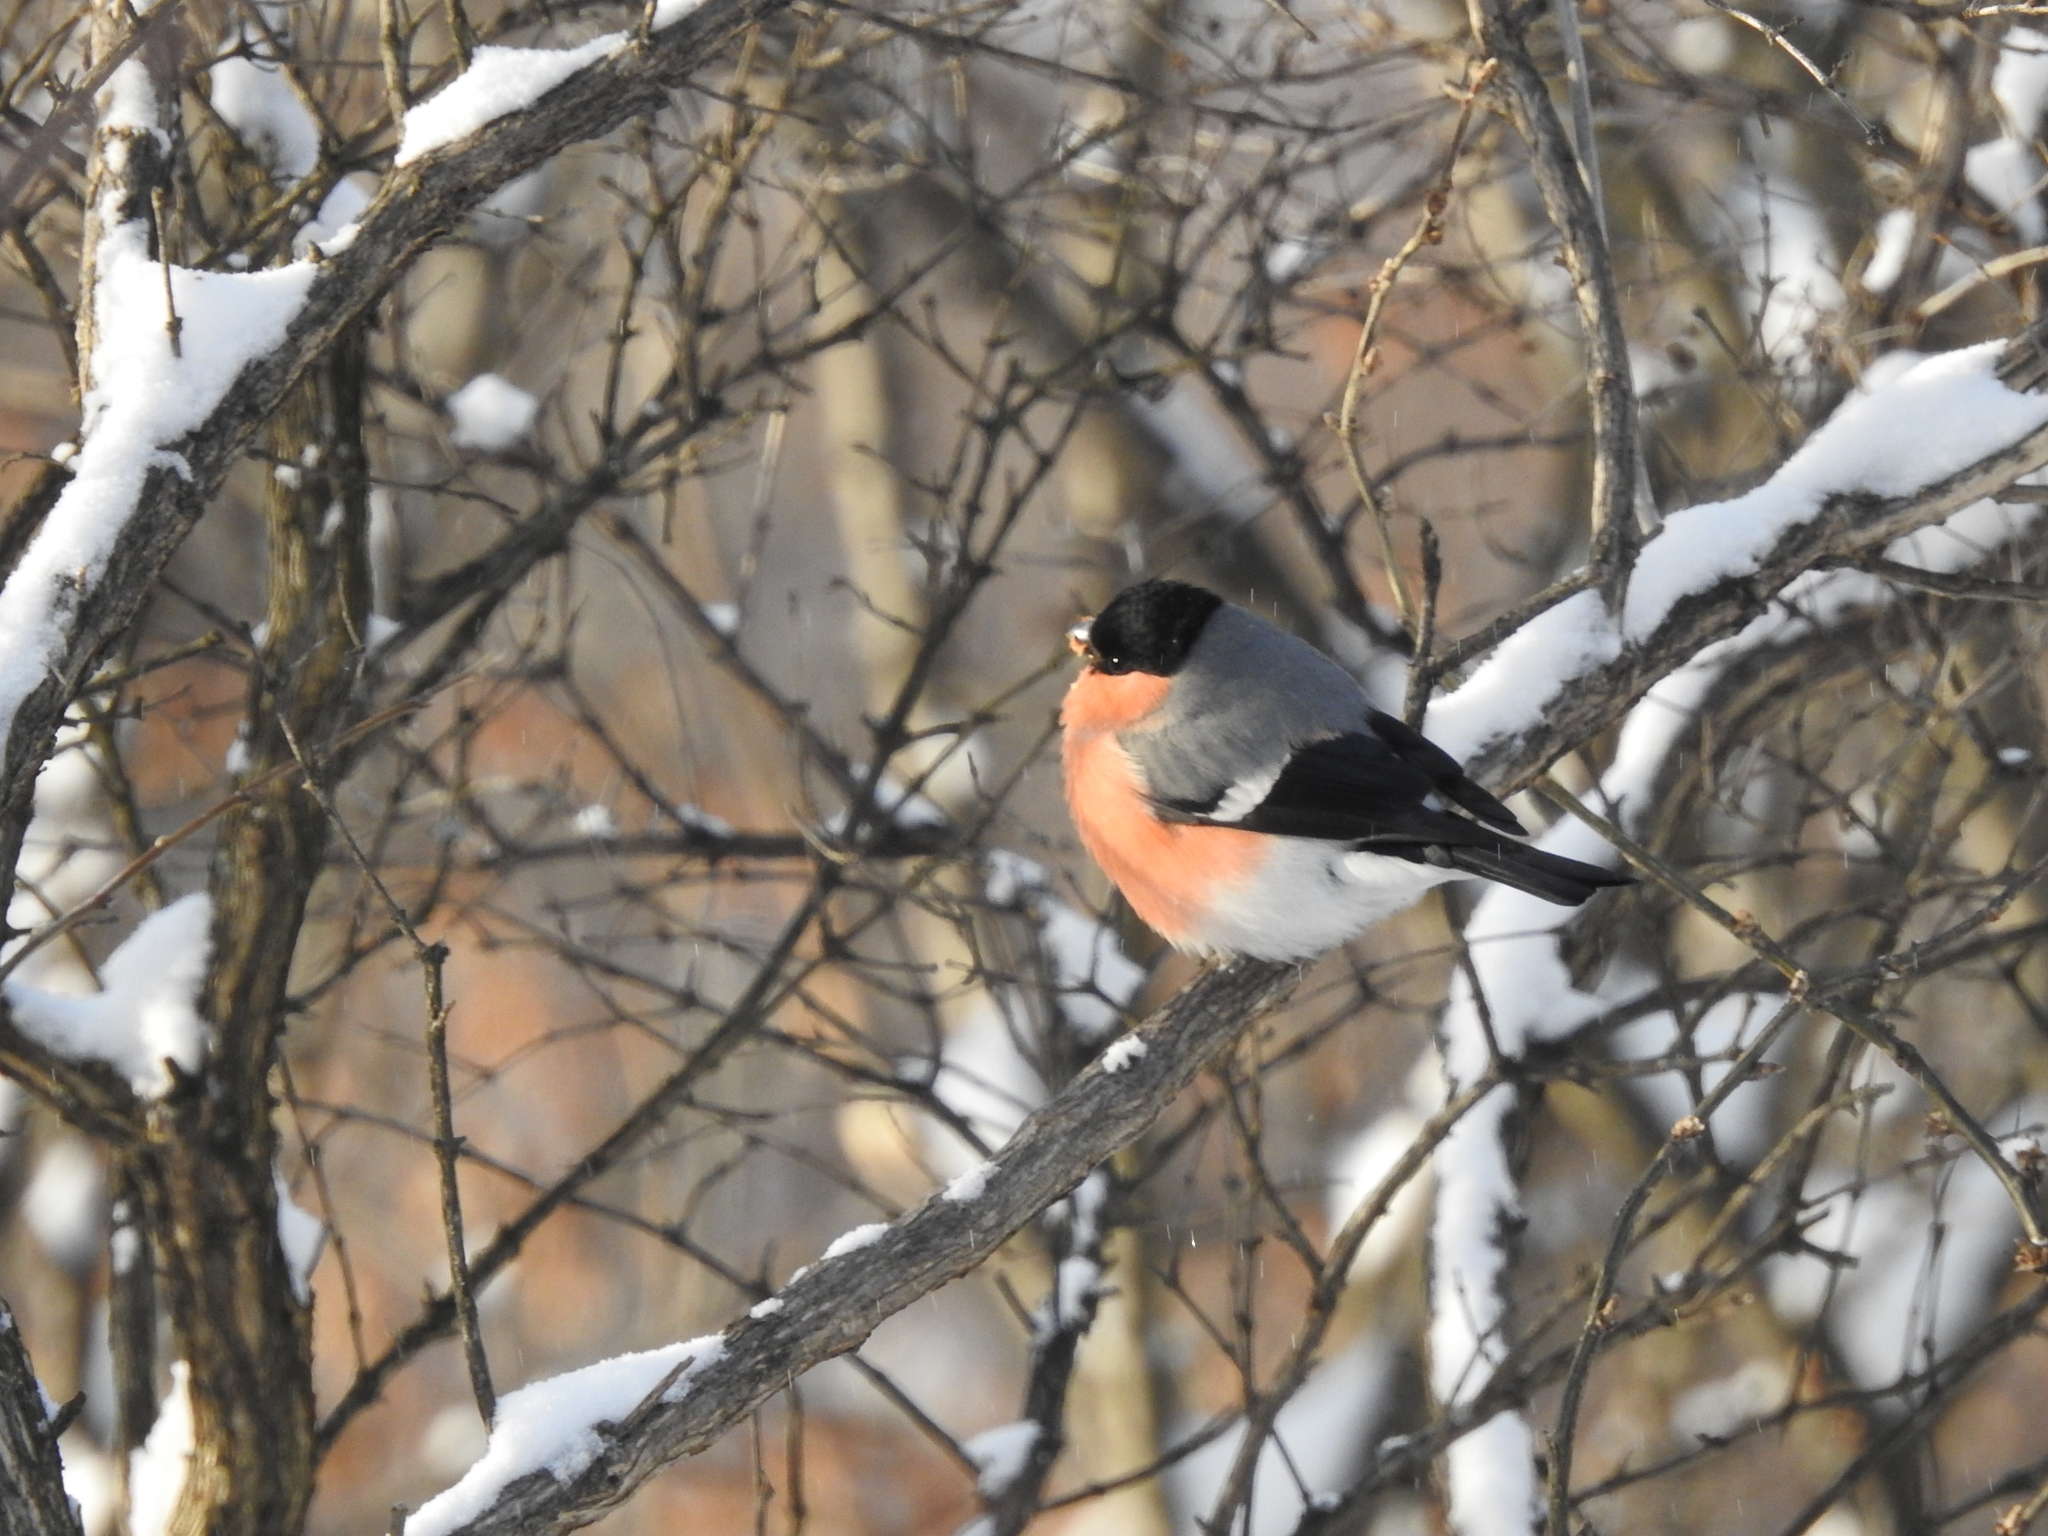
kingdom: Animalia
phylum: Chordata
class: Aves
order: Passeriformes
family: Fringillidae
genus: Pyrrhula
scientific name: Pyrrhula pyrrhula
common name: Eurasian bullfinch
